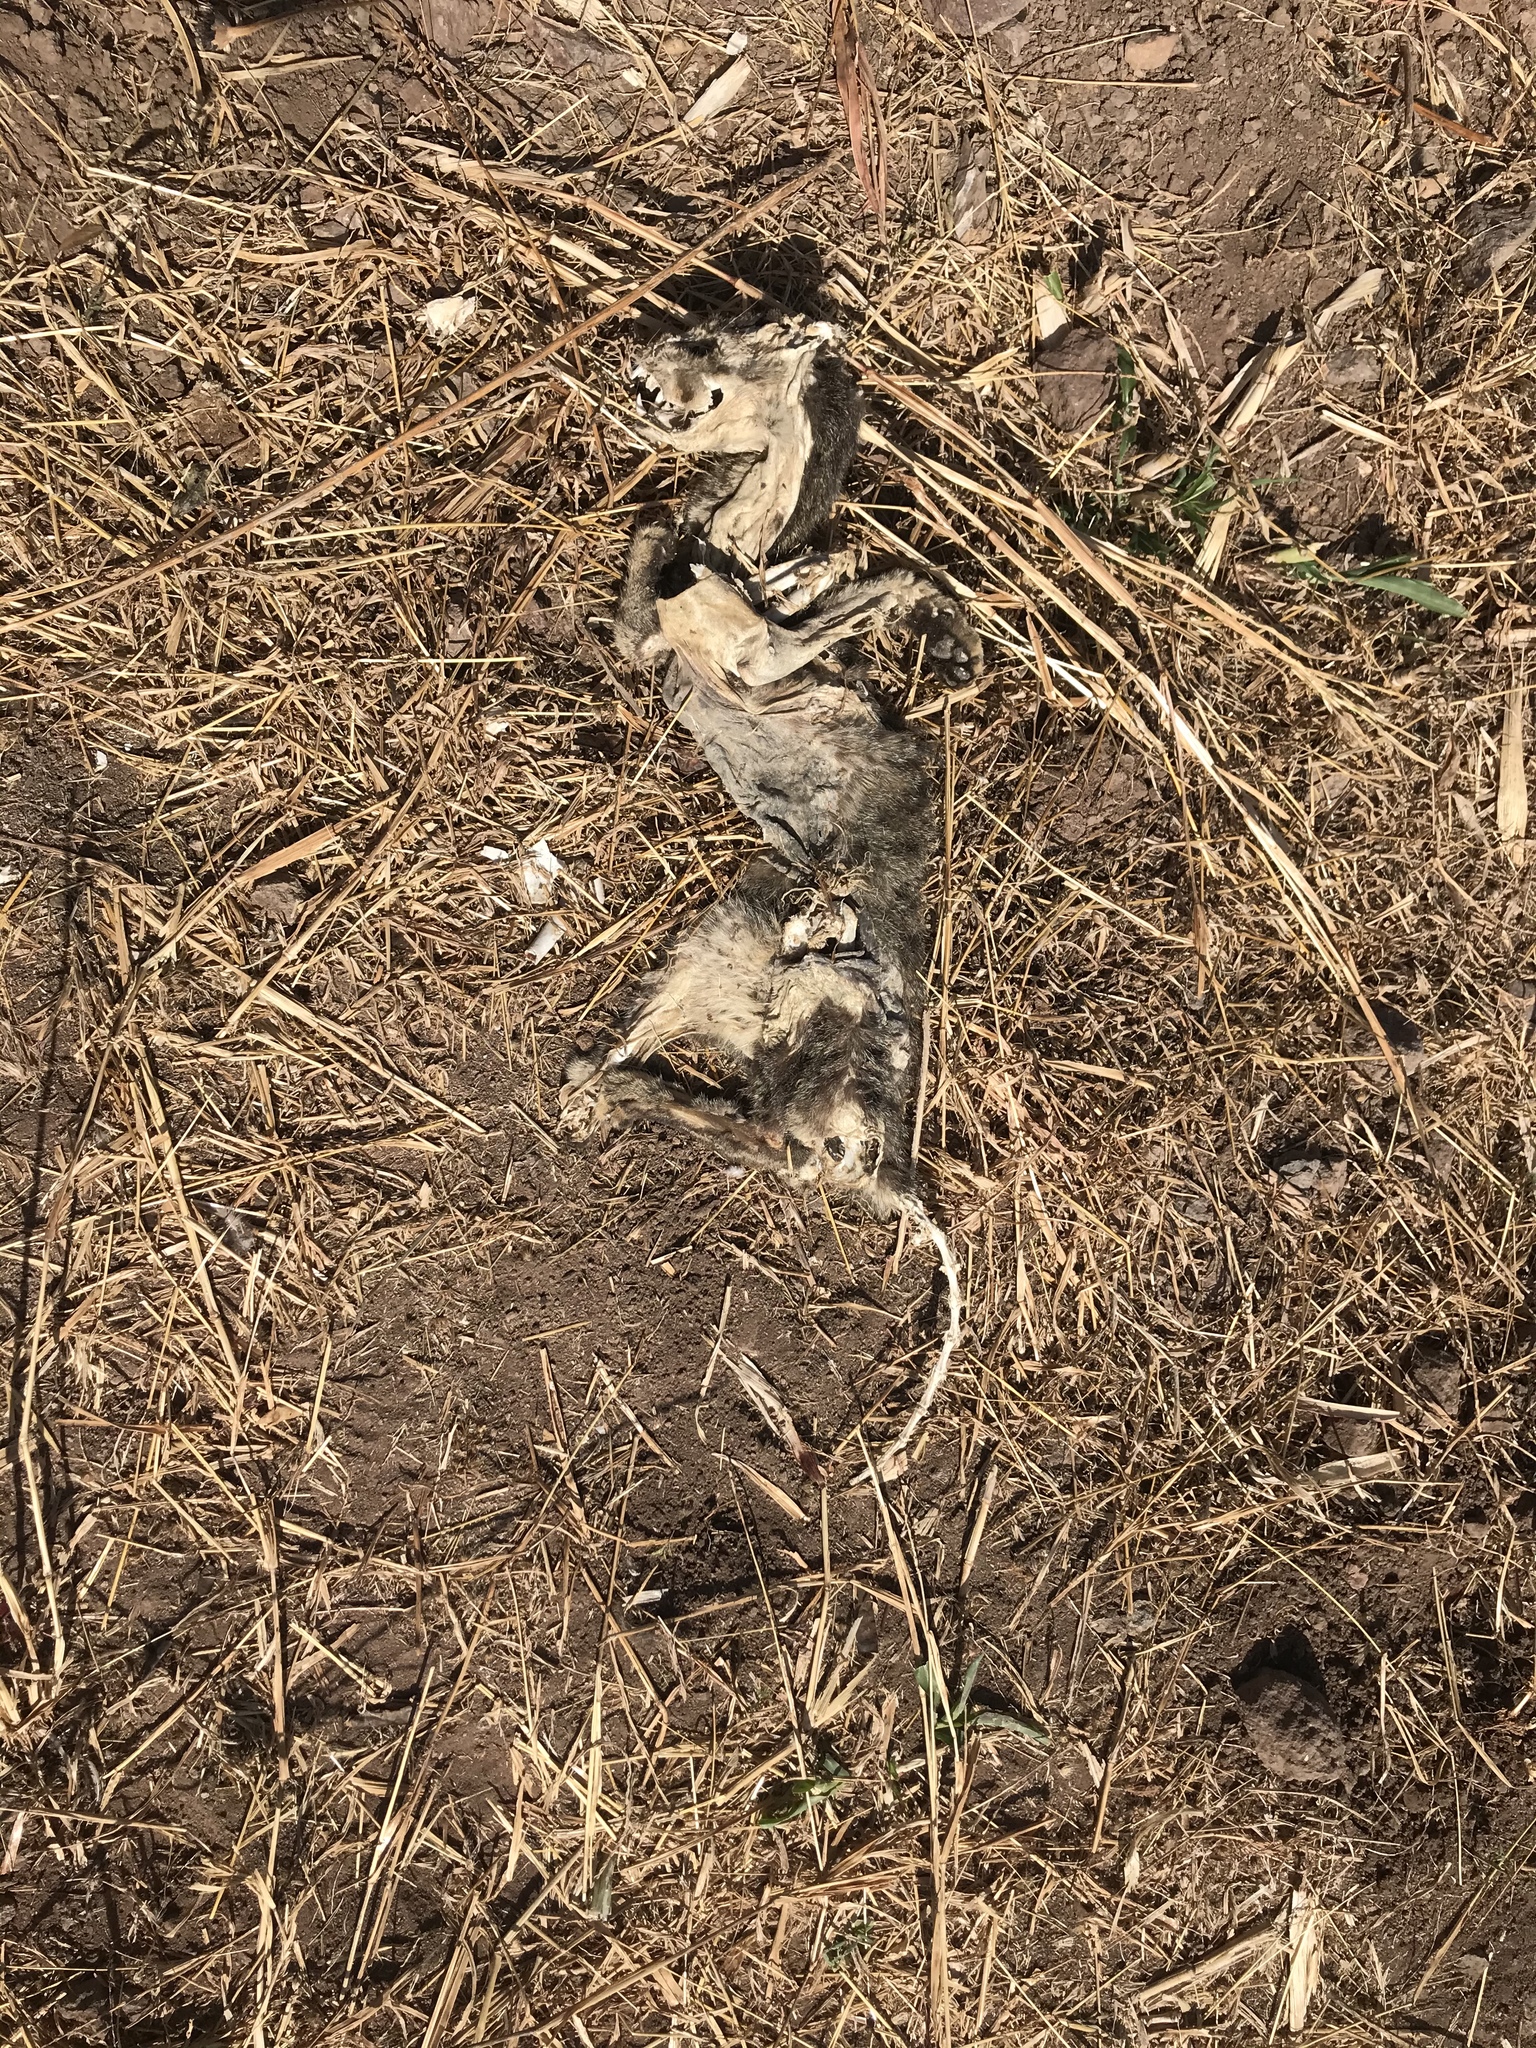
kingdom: Animalia
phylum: Chordata
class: Mammalia
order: Carnivora
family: Felidae
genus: Felis
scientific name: Felis catus
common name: Domestic cat
